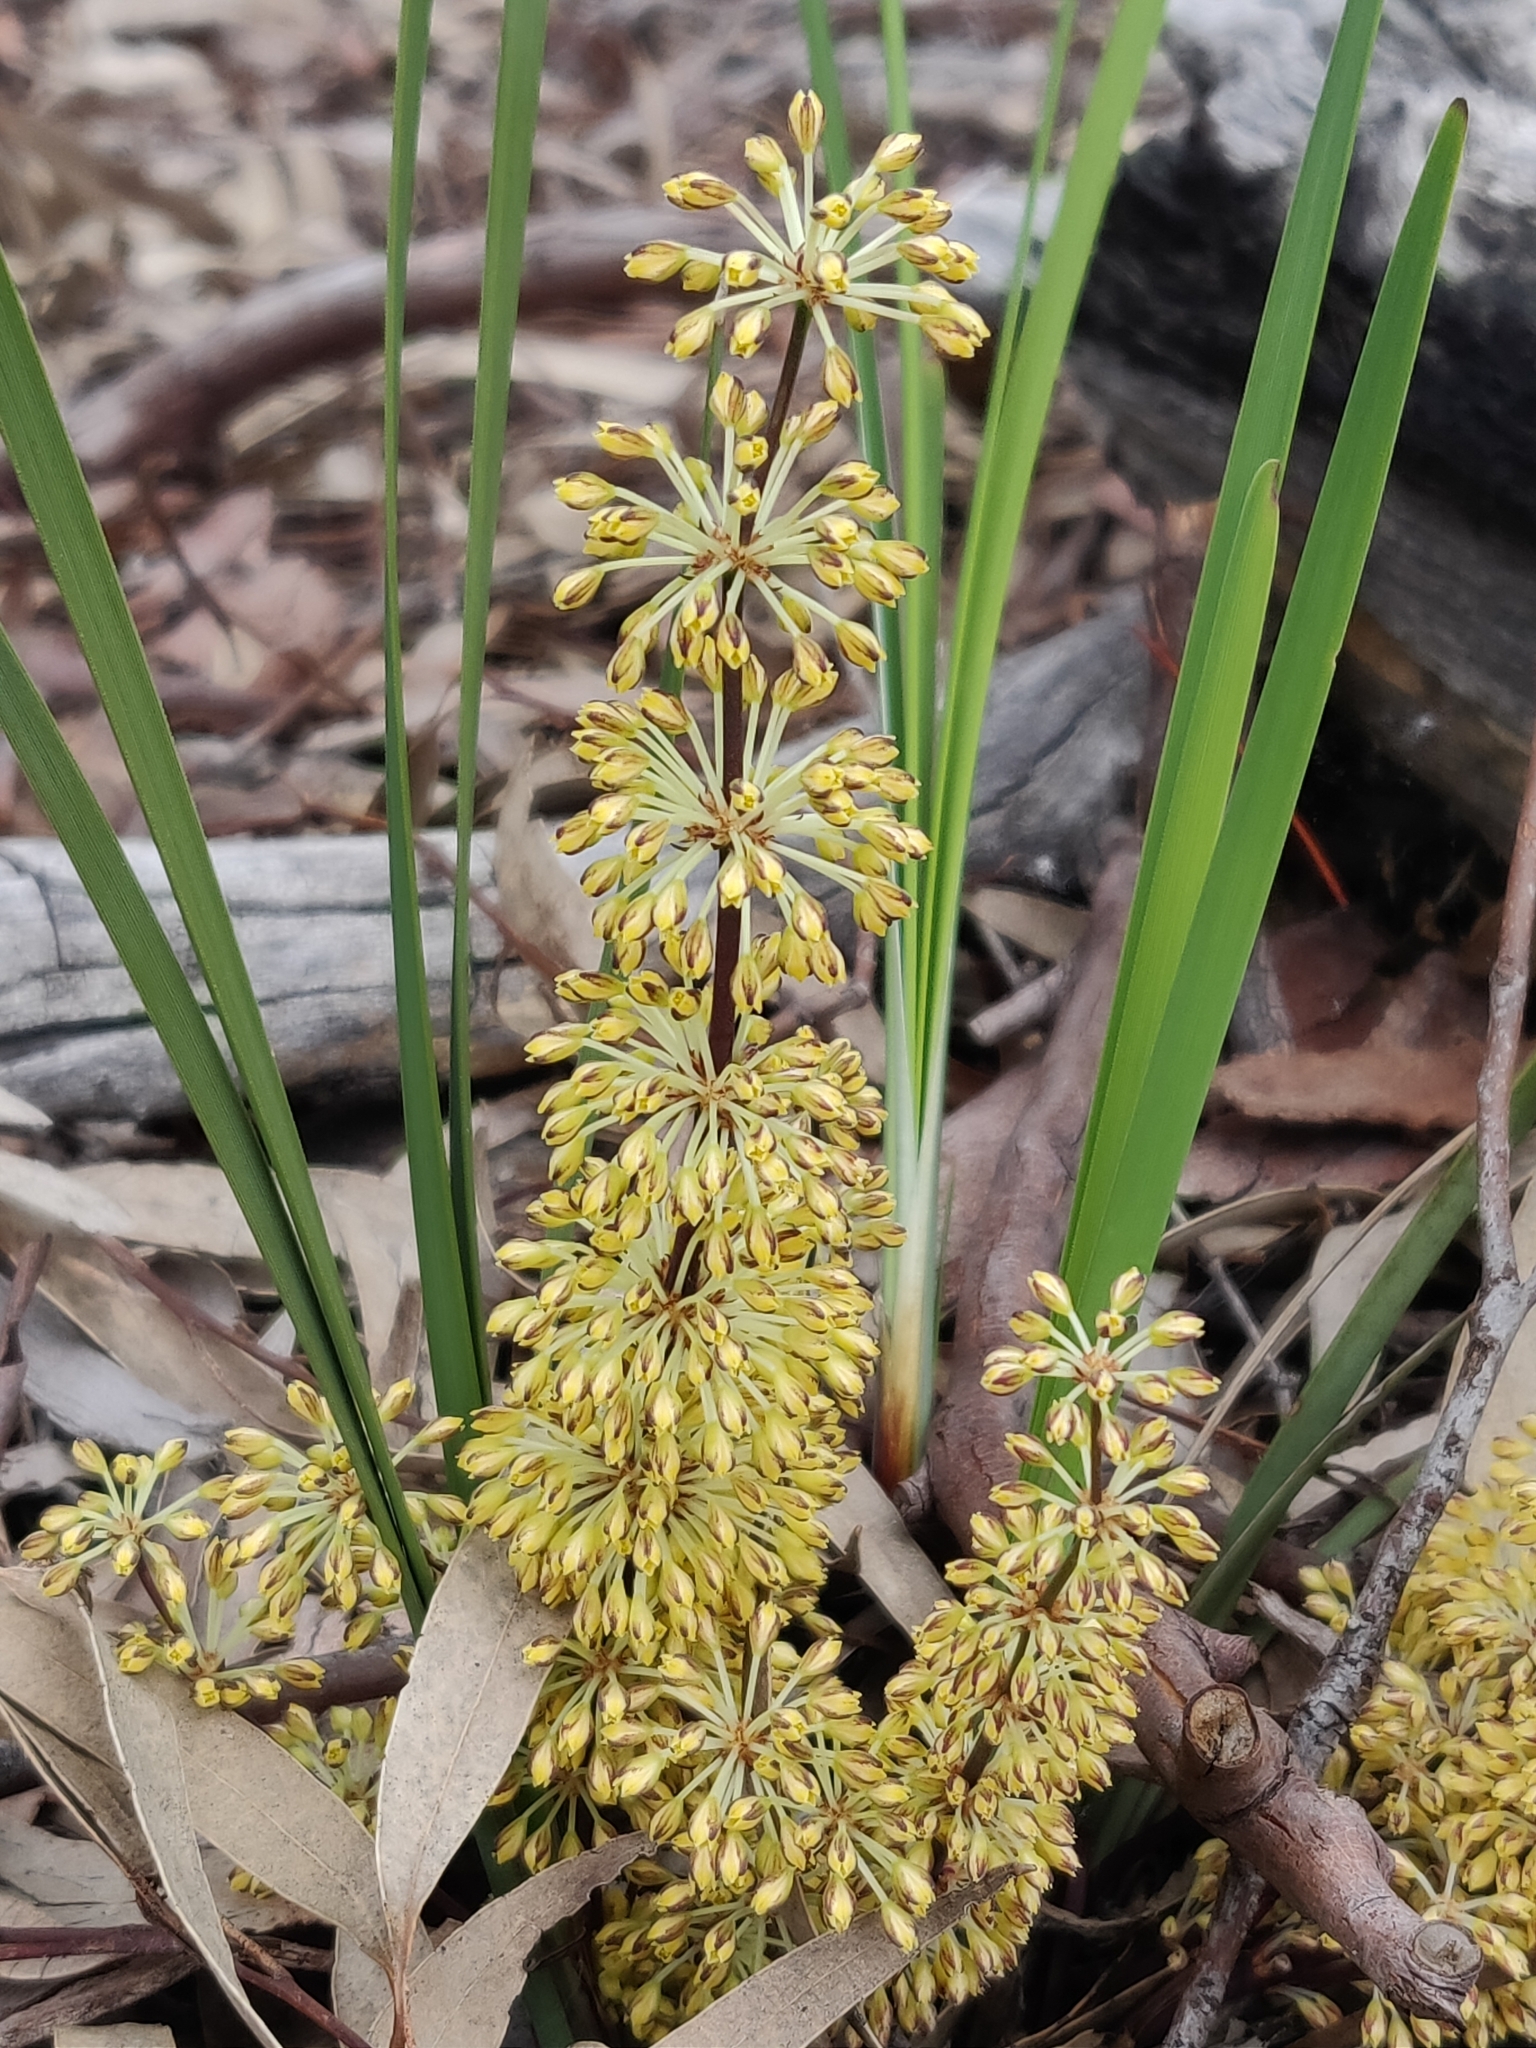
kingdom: Plantae
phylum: Tracheophyta
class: Liliopsida
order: Asparagales
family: Asparagaceae
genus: Lomandra
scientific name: Lomandra multiflora
